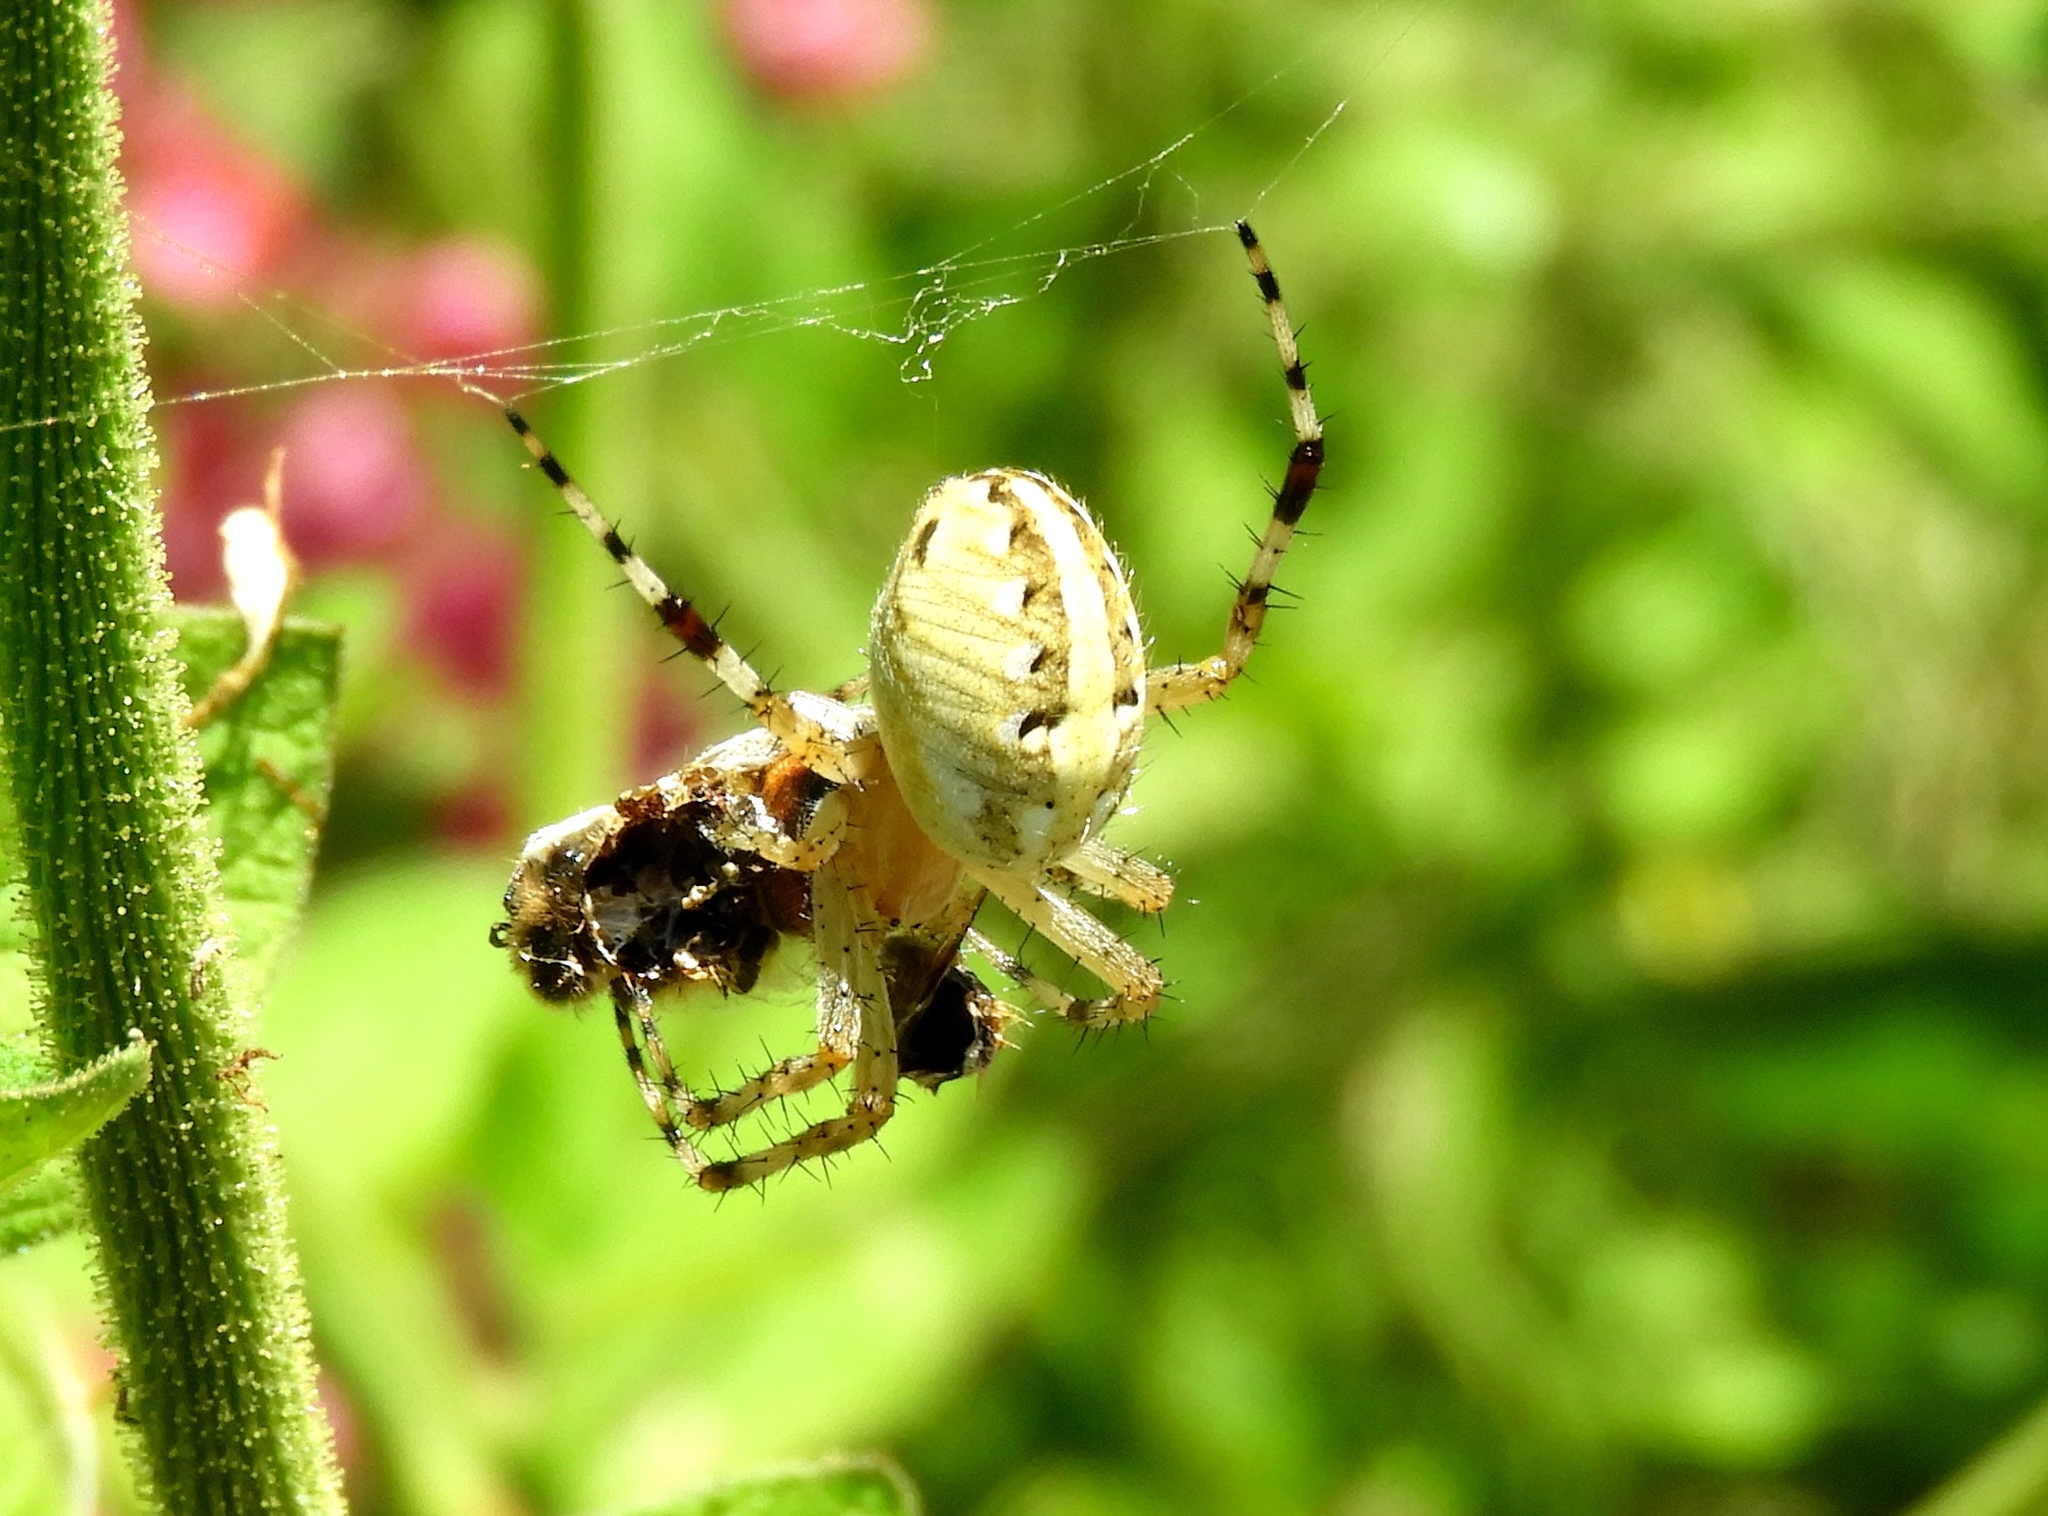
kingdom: Animalia
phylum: Arthropoda
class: Arachnida
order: Araneae
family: Araneidae
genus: Neoscona
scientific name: Neoscona
